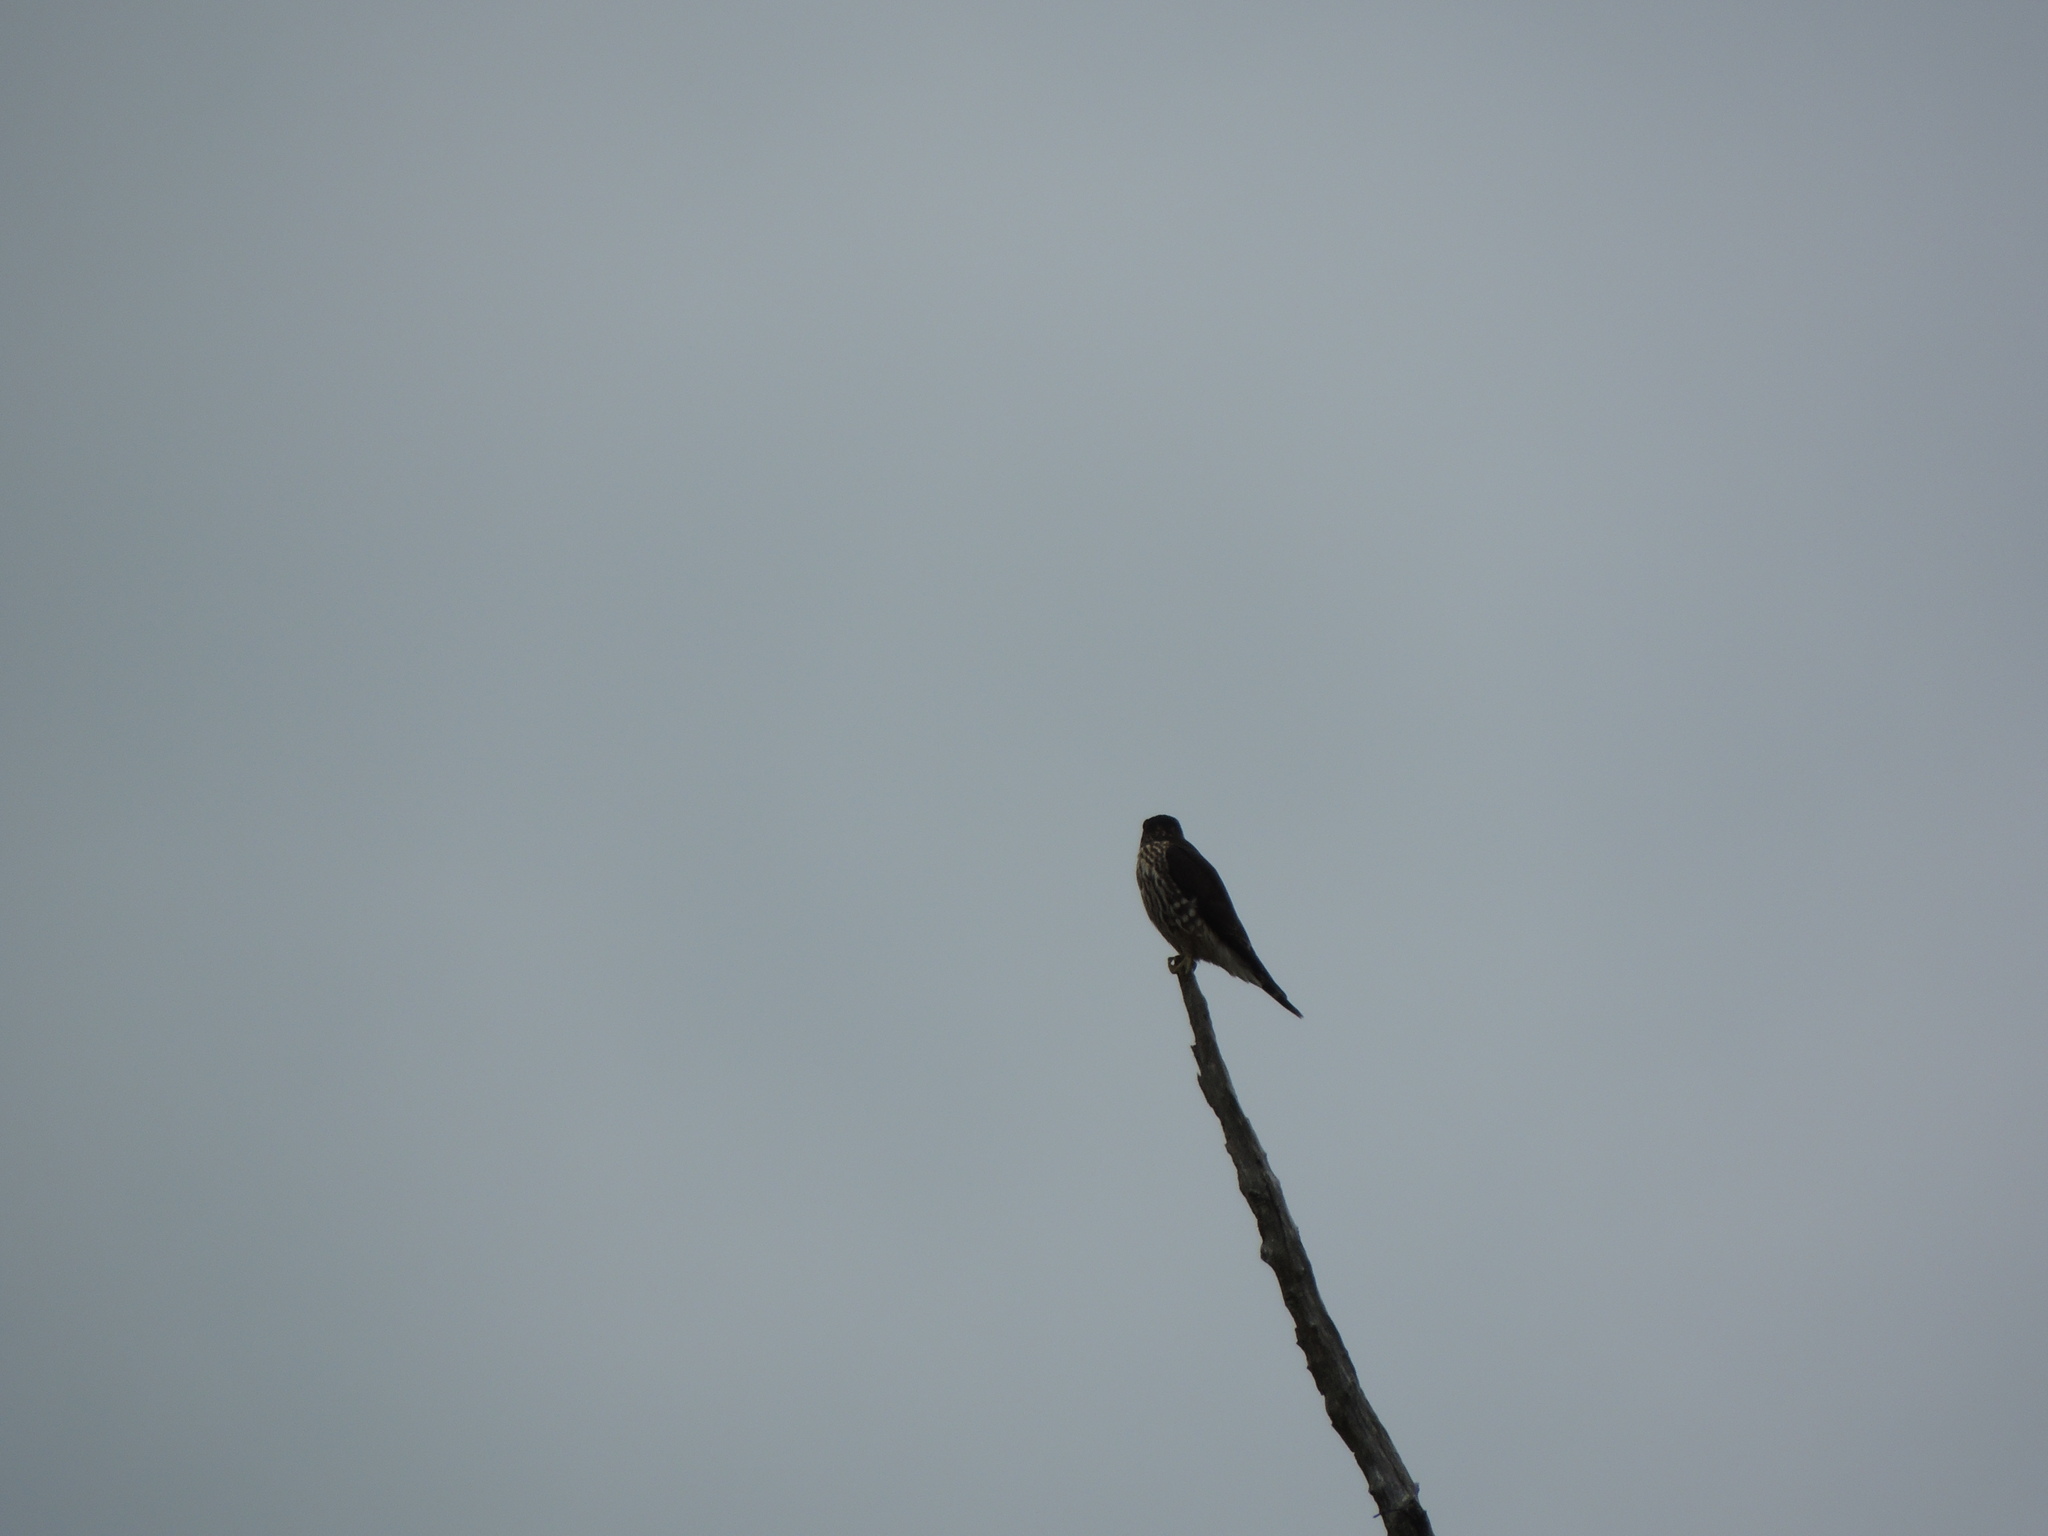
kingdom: Animalia
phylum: Chordata
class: Aves
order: Falconiformes
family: Falconidae
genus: Falco
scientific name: Falco columbarius
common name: Merlin
